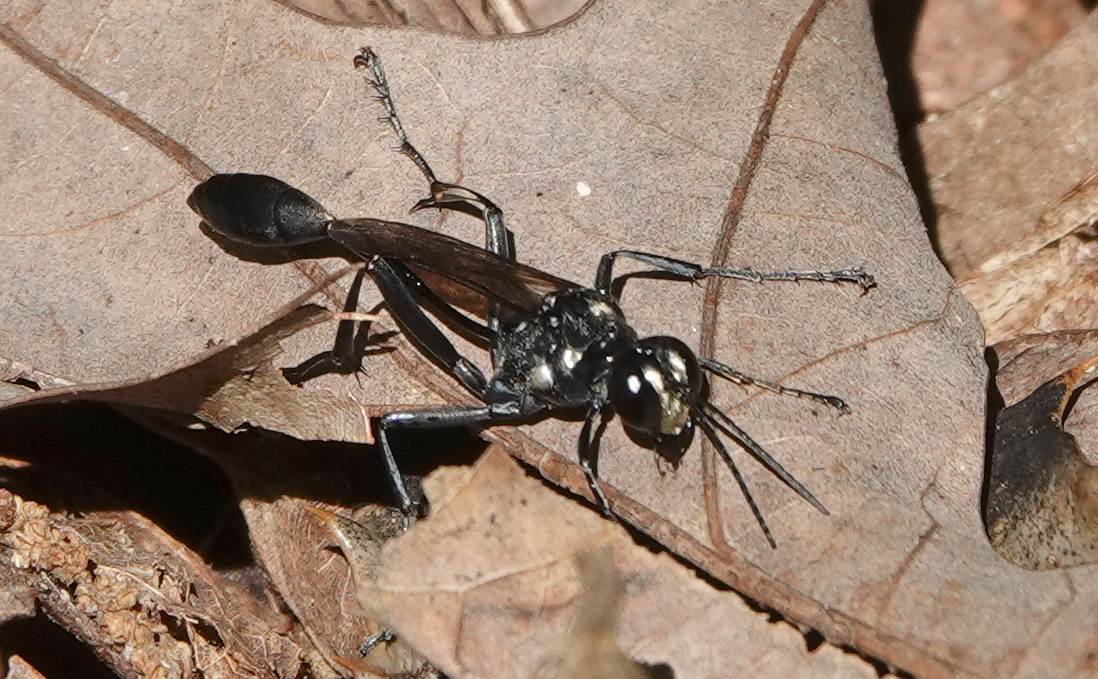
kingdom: Animalia
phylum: Arthropoda
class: Insecta
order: Hymenoptera
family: Sphecidae
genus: Eremnophila
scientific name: Eremnophila aureonotata
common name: Gold-marked thread-waisted wasp
